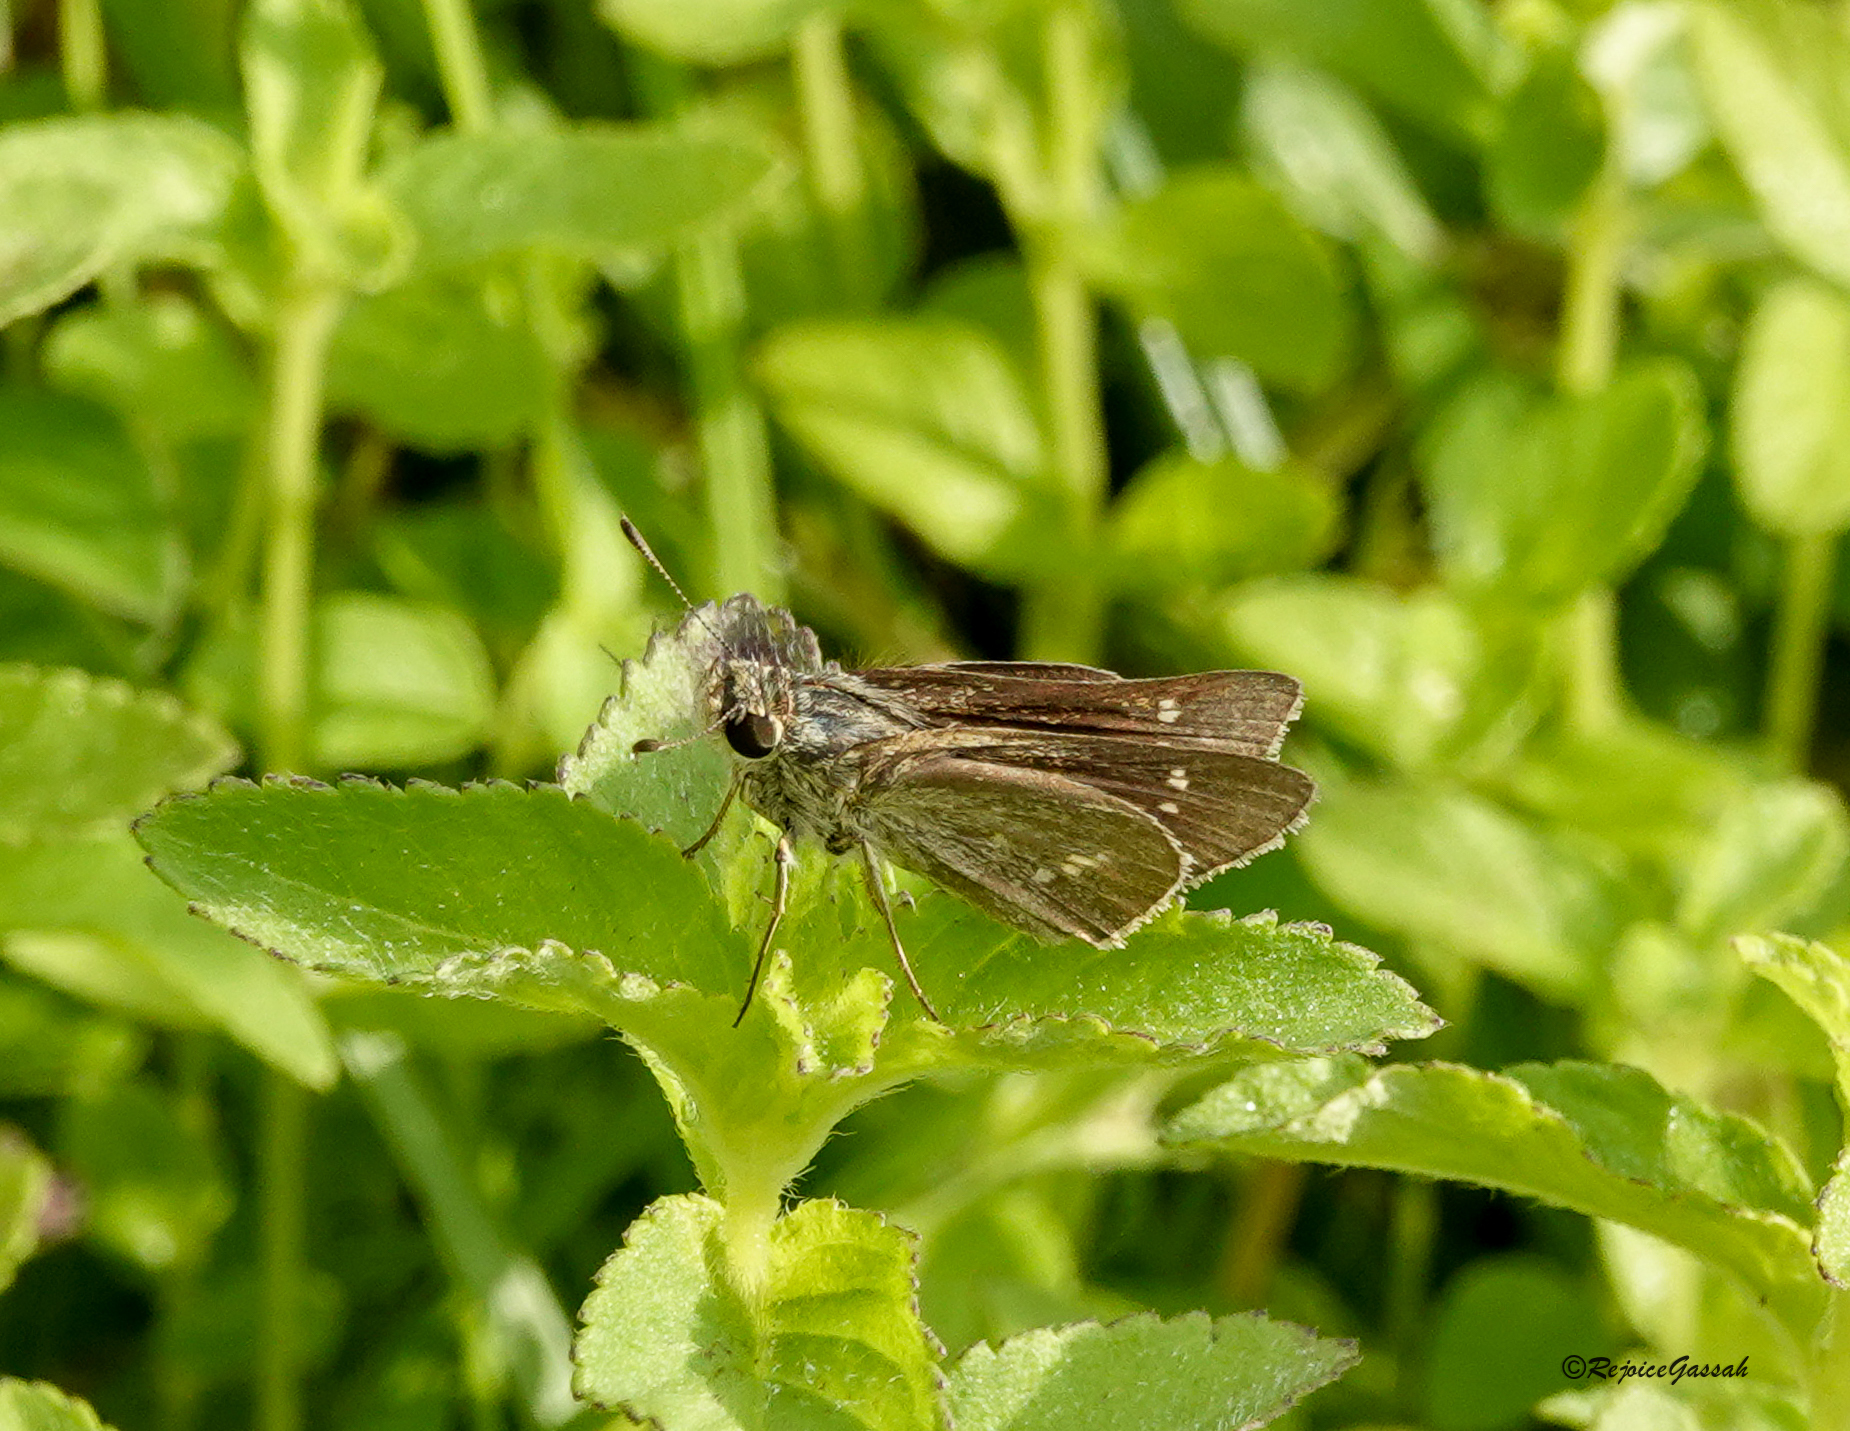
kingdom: Animalia
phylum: Arthropoda
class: Insecta
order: Lepidoptera
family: Hesperiidae
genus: Parnara
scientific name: Parnara naso
